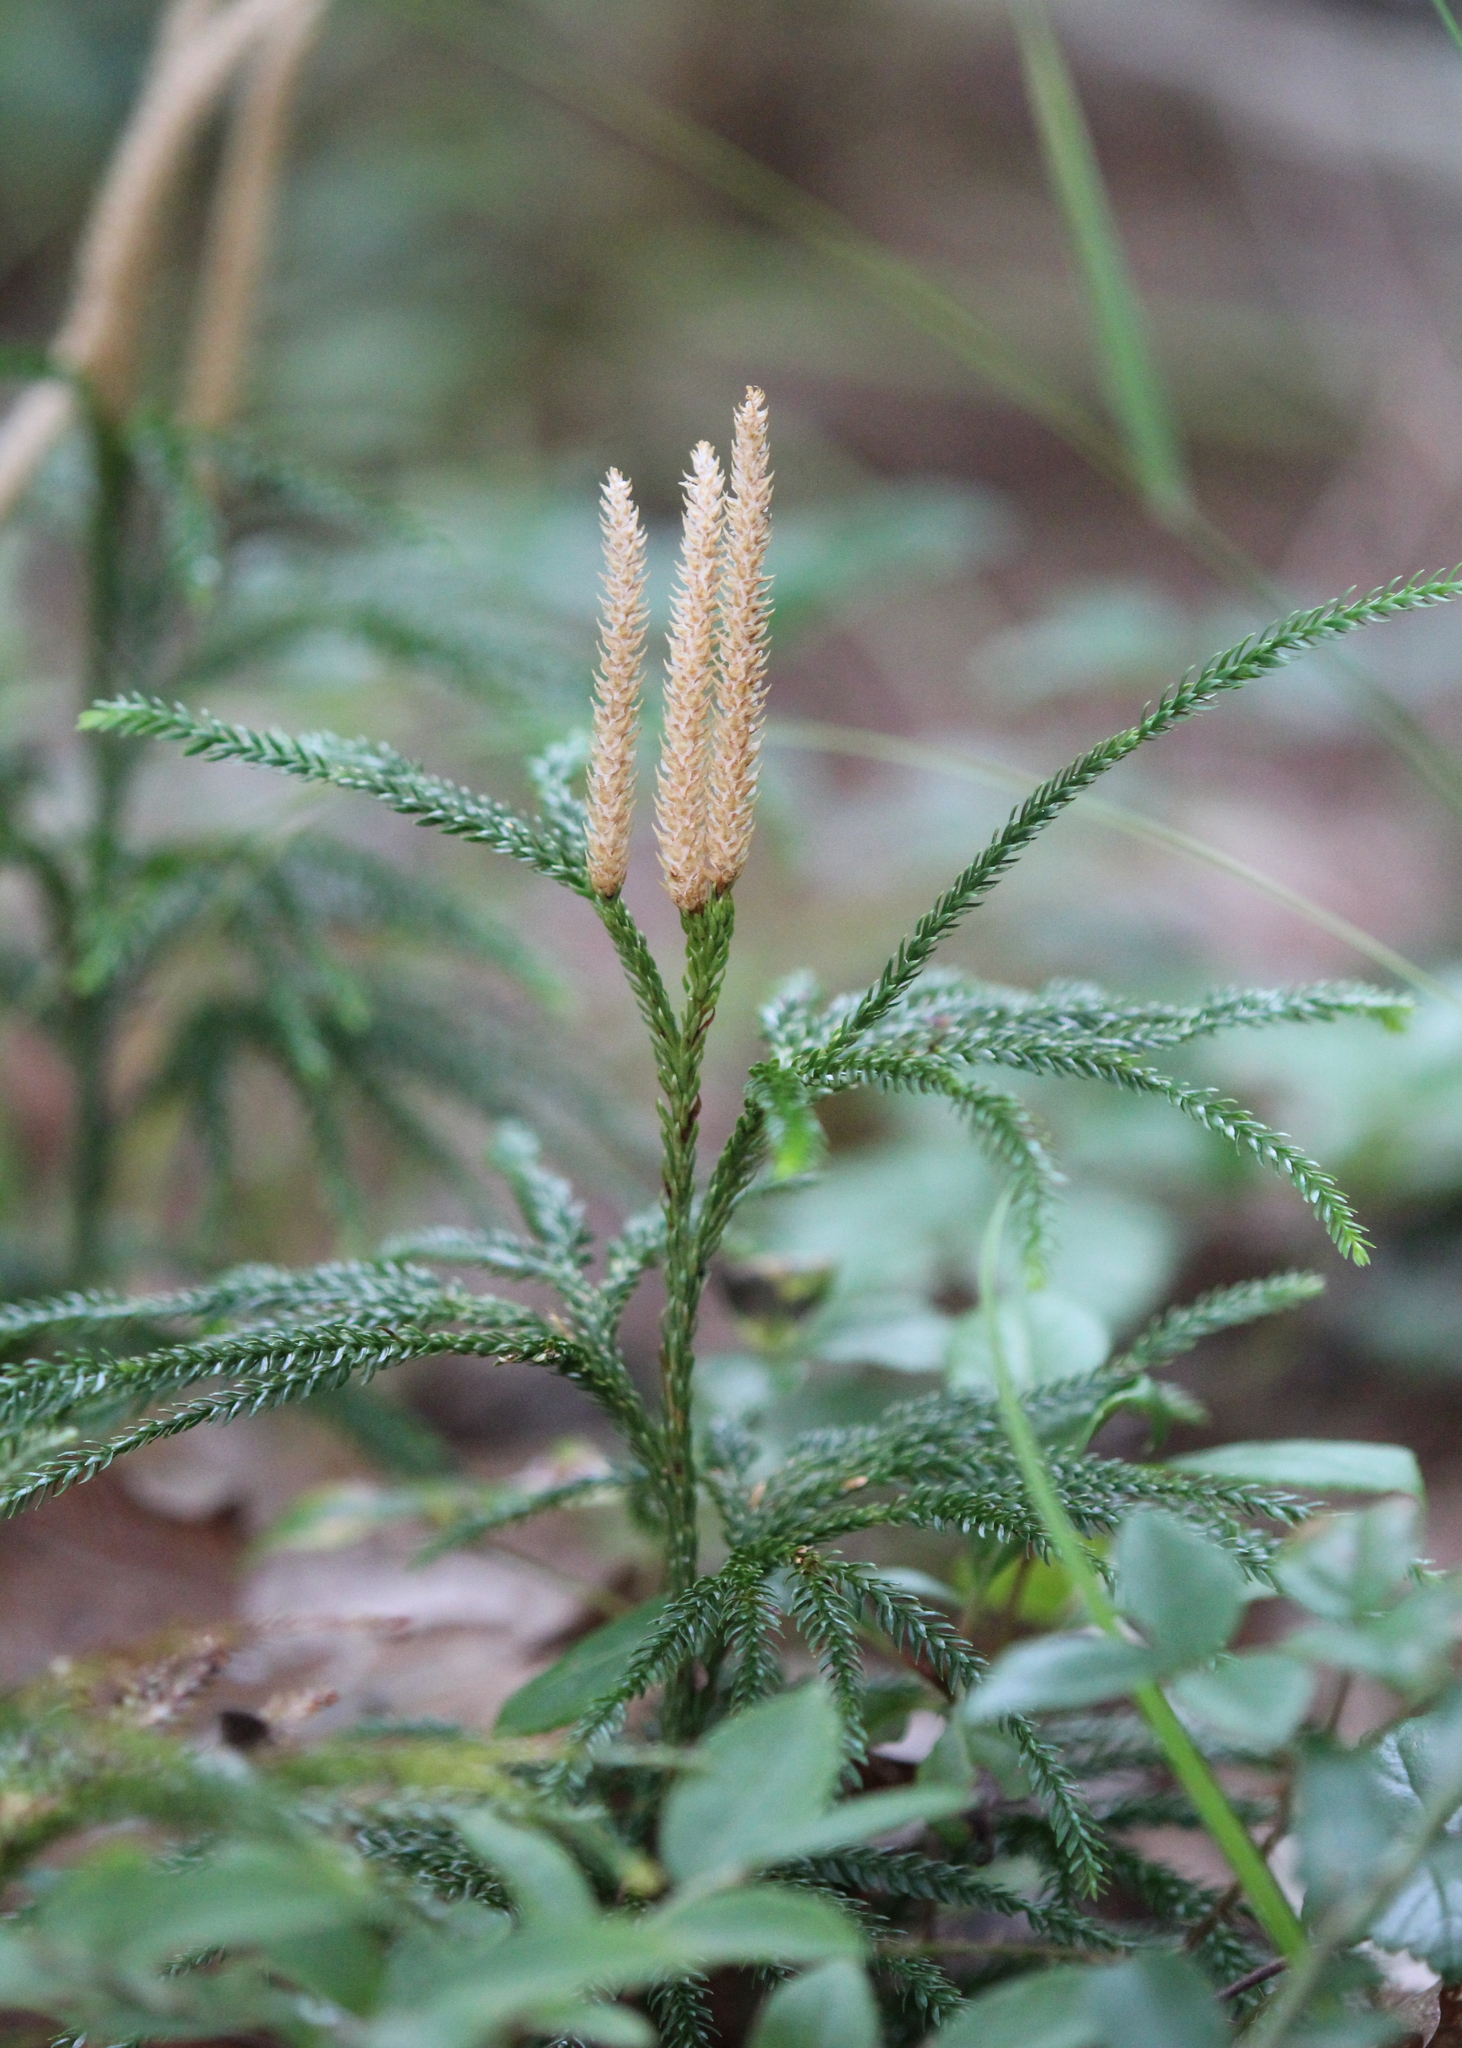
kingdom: Plantae
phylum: Tracheophyta
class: Lycopodiopsida
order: Lycopodiales
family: Lycopodiaceae
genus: Dendrolycopodium
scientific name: Dendrolycopodium obscurum
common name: Common ground-pine
